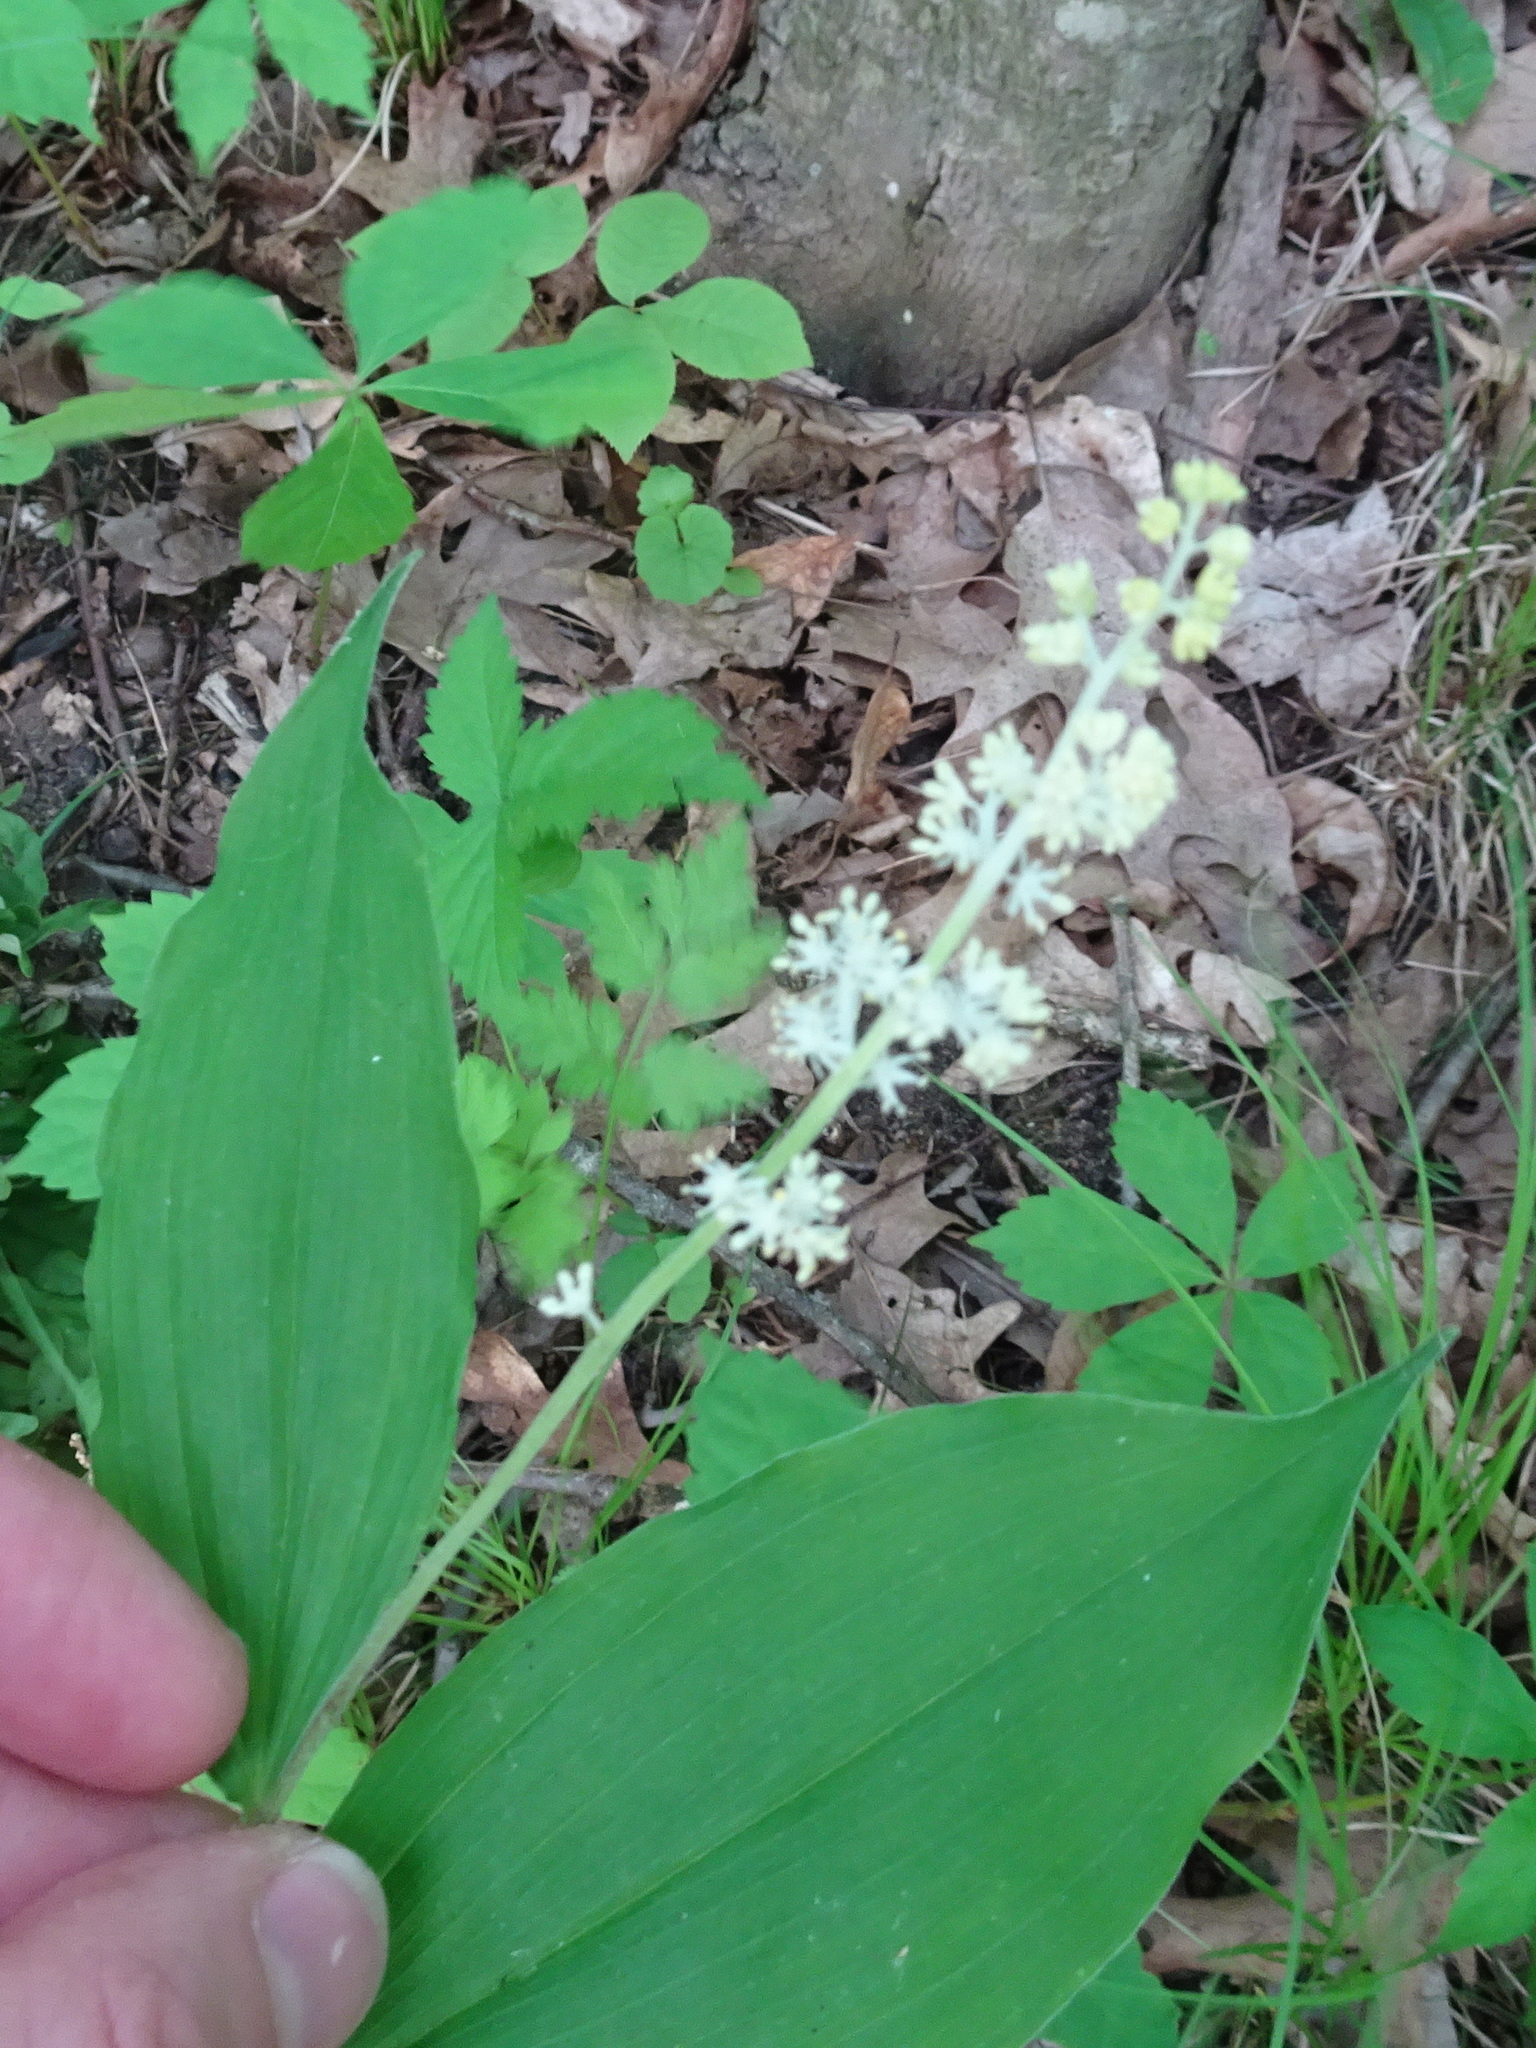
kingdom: Plantae
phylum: Tracheophyta
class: Liliopsida
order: Asparagales
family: Asparagaceae
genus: Maianthemum
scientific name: Maianthemum racemosum
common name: False spikenard
